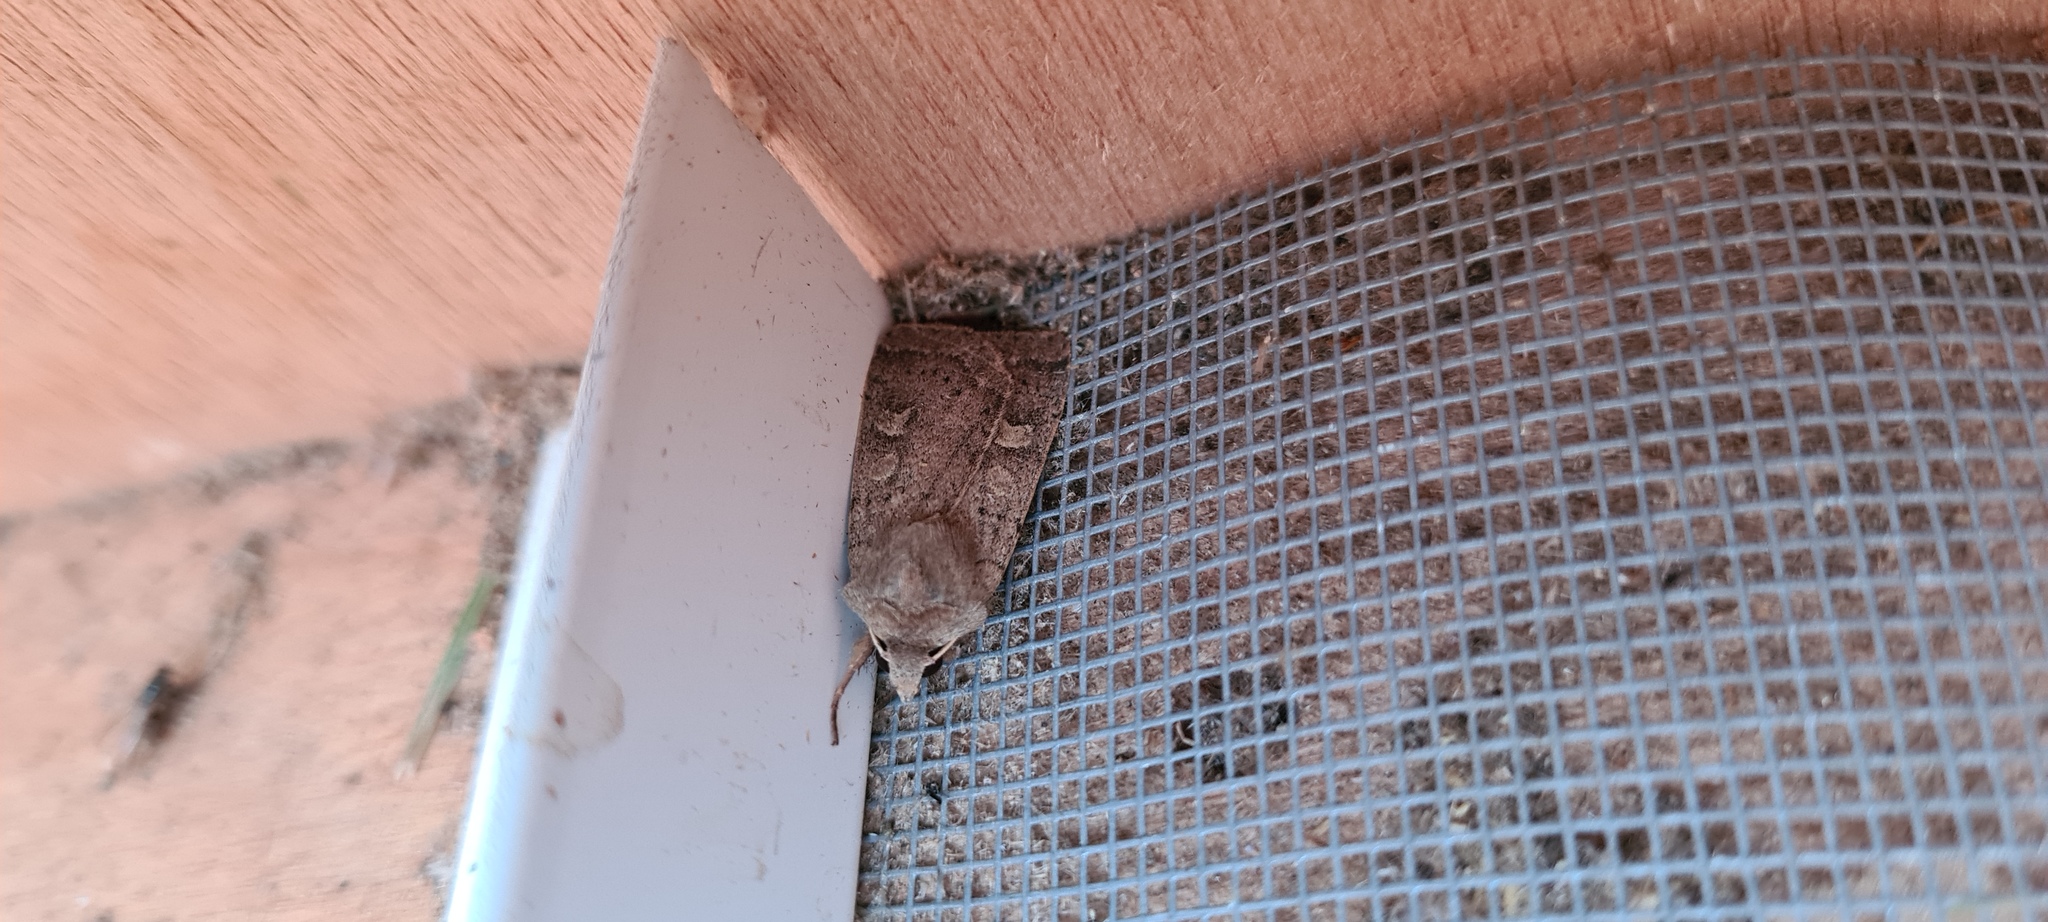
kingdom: Animalia
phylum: Arthropoda
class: Insecta
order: Lepidoptera
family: Noctuidae
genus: Xestia
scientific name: Xestia xanthographa
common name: Square-spot rustic
